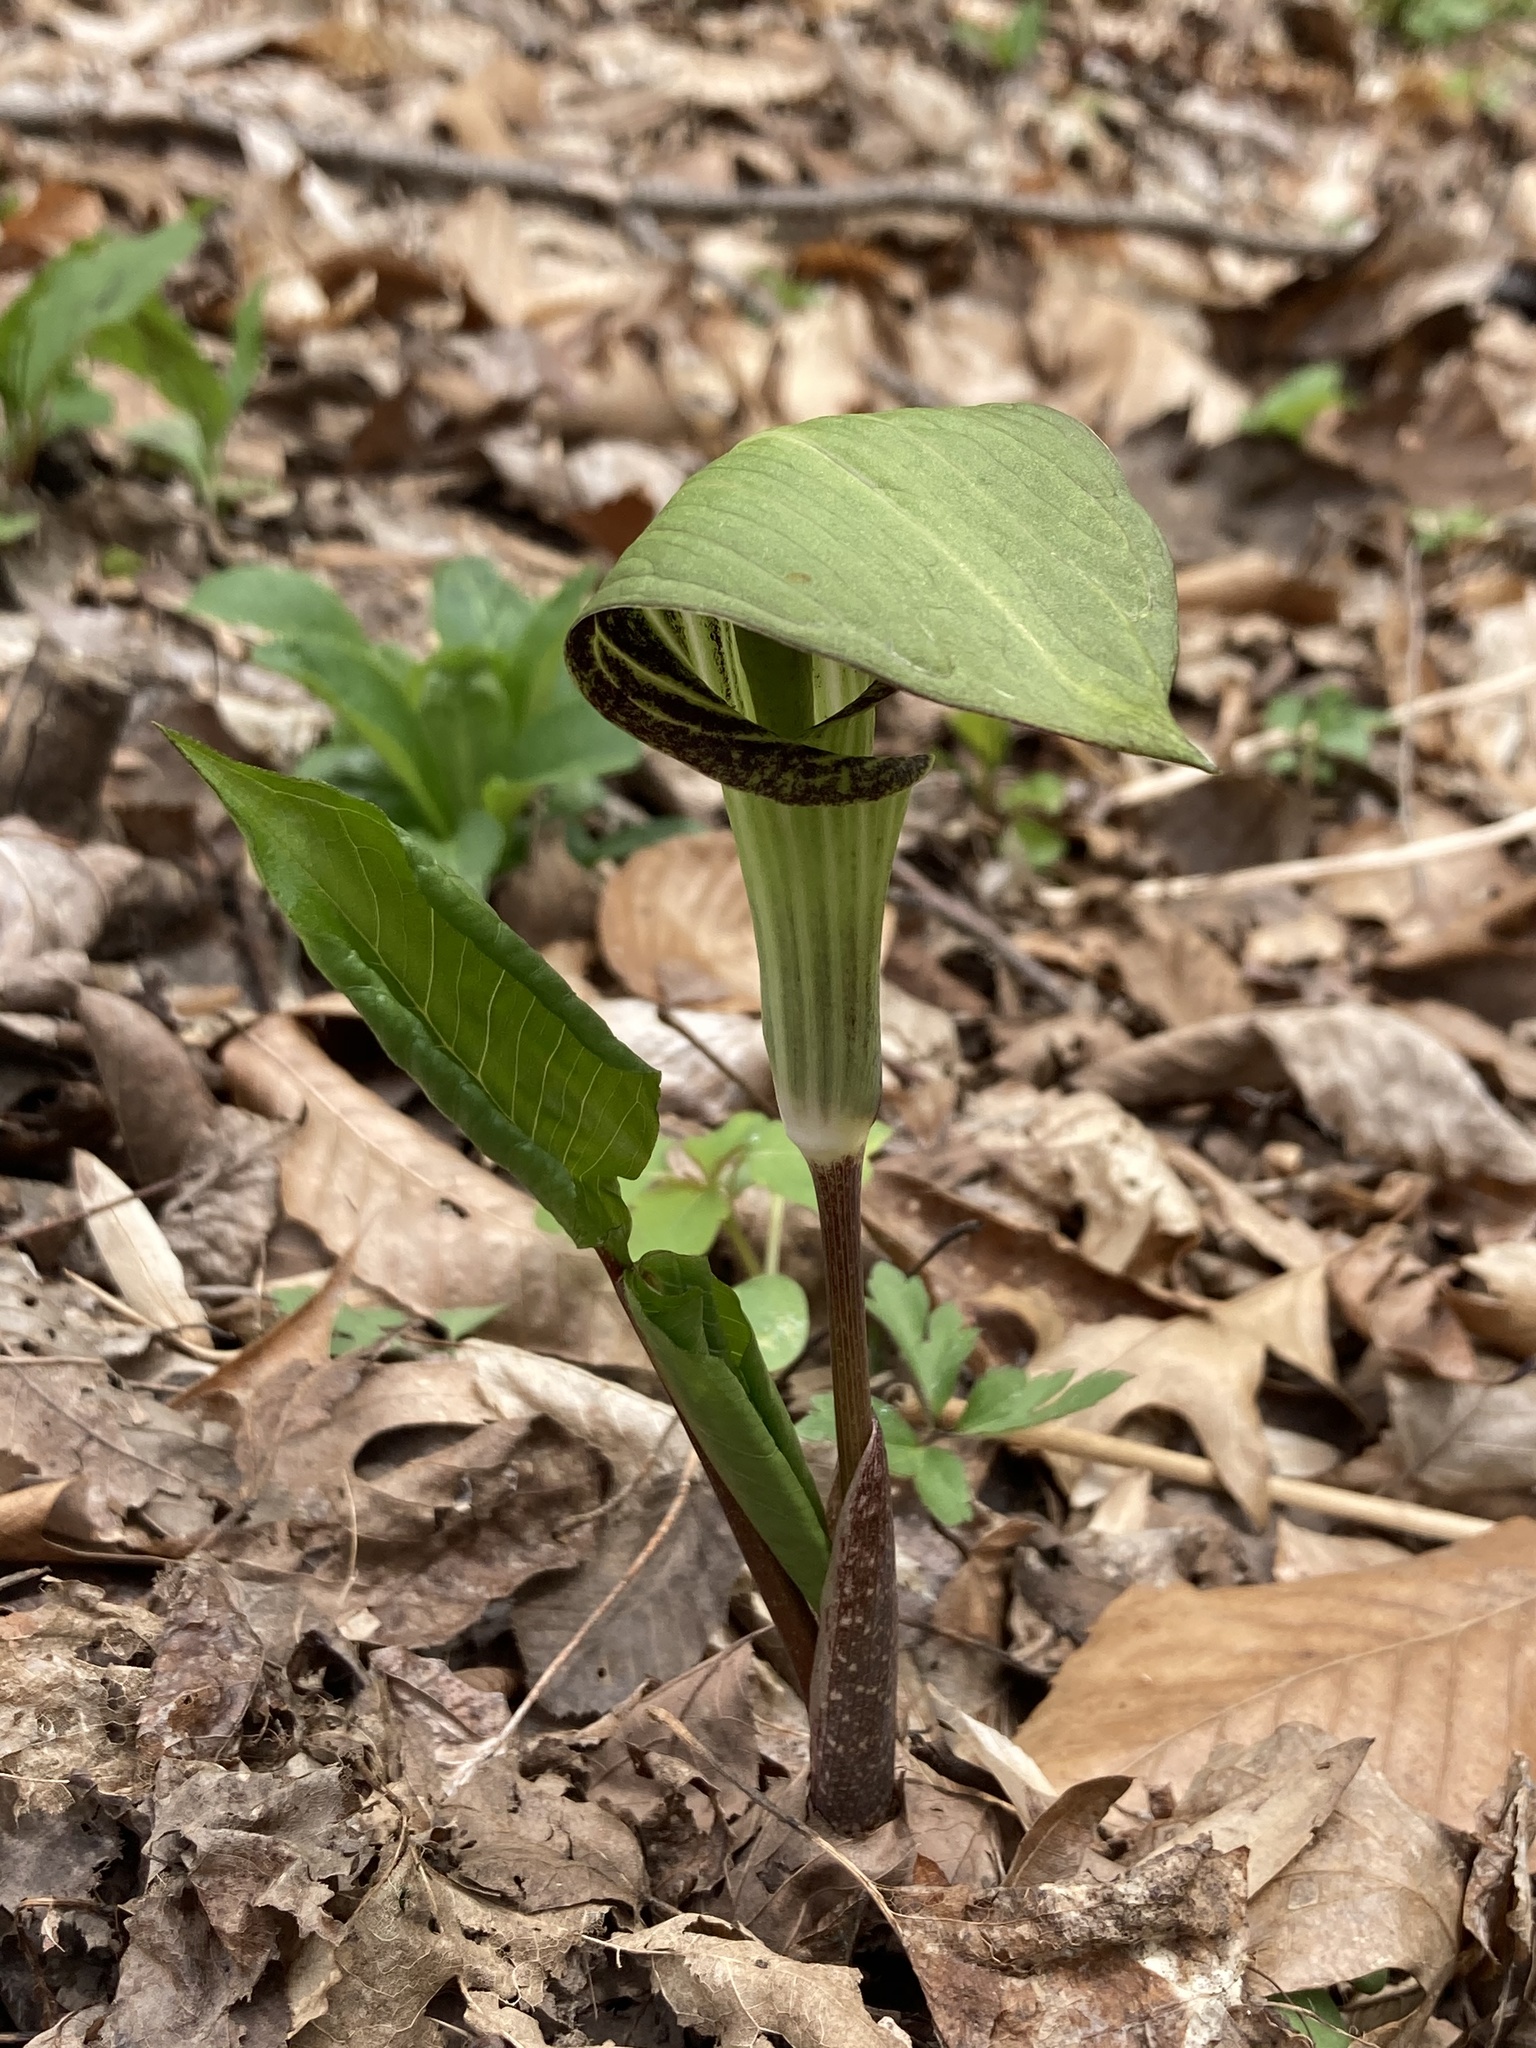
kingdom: Plantae
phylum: Tracheophyta
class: Liliopsida
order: Alismatales
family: Araceae
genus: Arisaema
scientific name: Arisaema triphyllum
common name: Jack-in-the-pulpit
